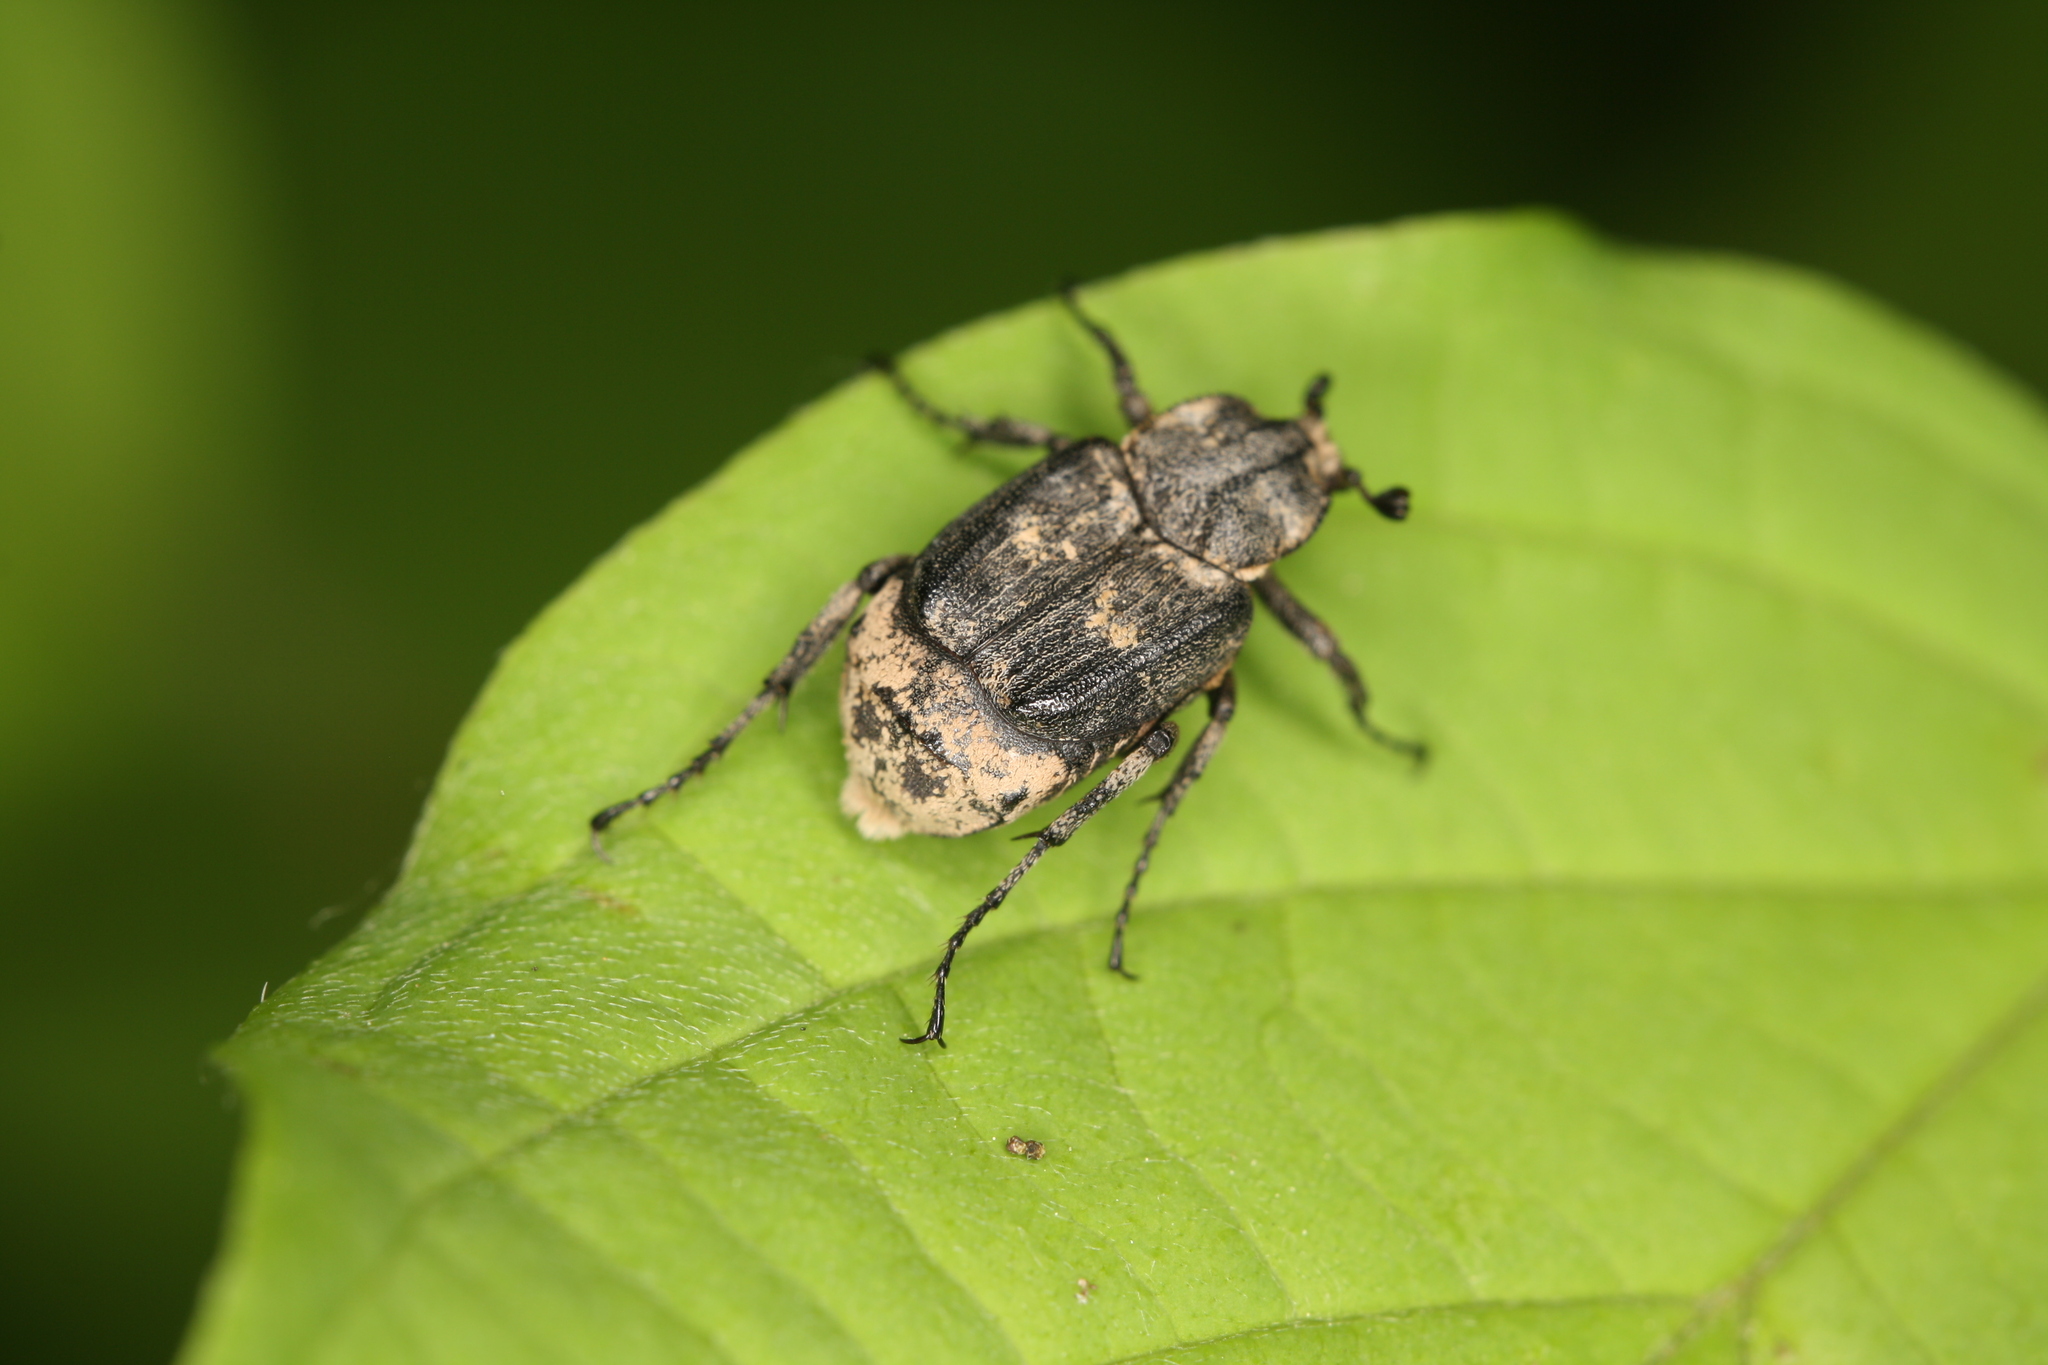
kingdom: Animalia
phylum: Arthropoda
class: Insecta
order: Coleoptera
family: Scarabaeidae
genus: Valgus
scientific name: Valgus hemipterus
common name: Bug flower chafer
